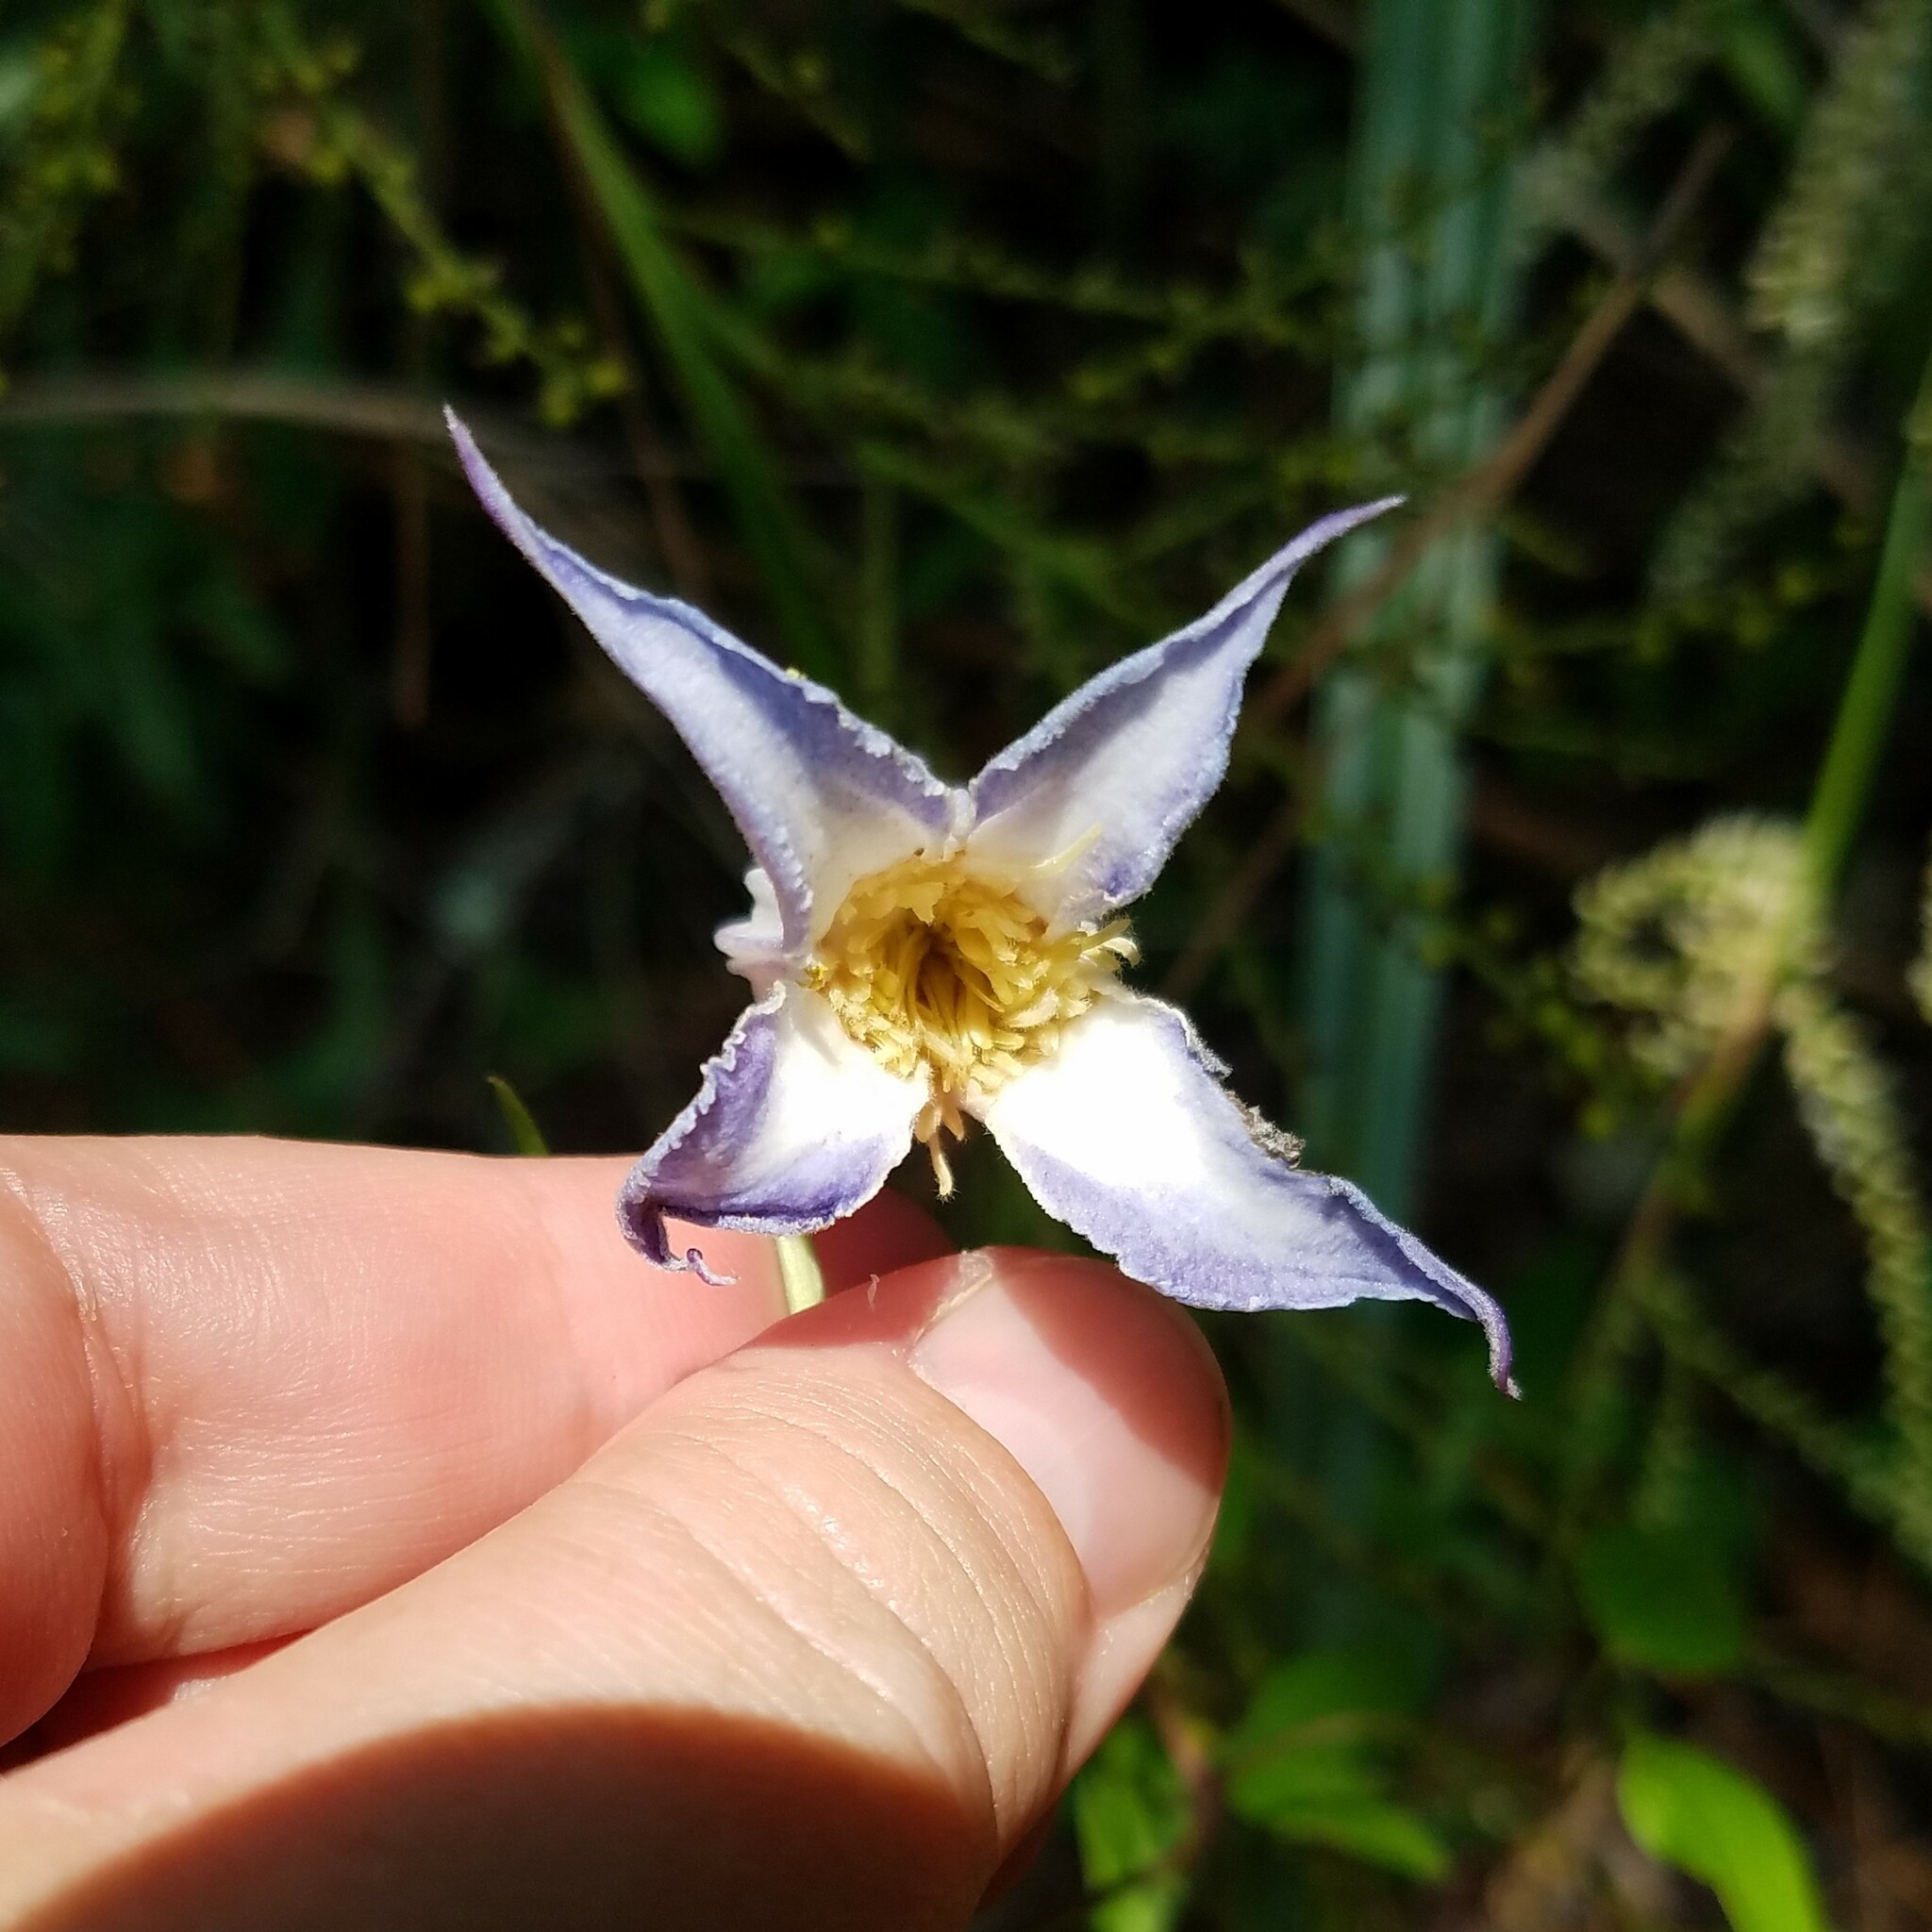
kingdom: Plantae
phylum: Tracheophyta
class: Magnoliopsida
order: Ranunculales
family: Ranunculaceae
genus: Clematis
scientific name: Clematis crispa
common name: Curly clematis
